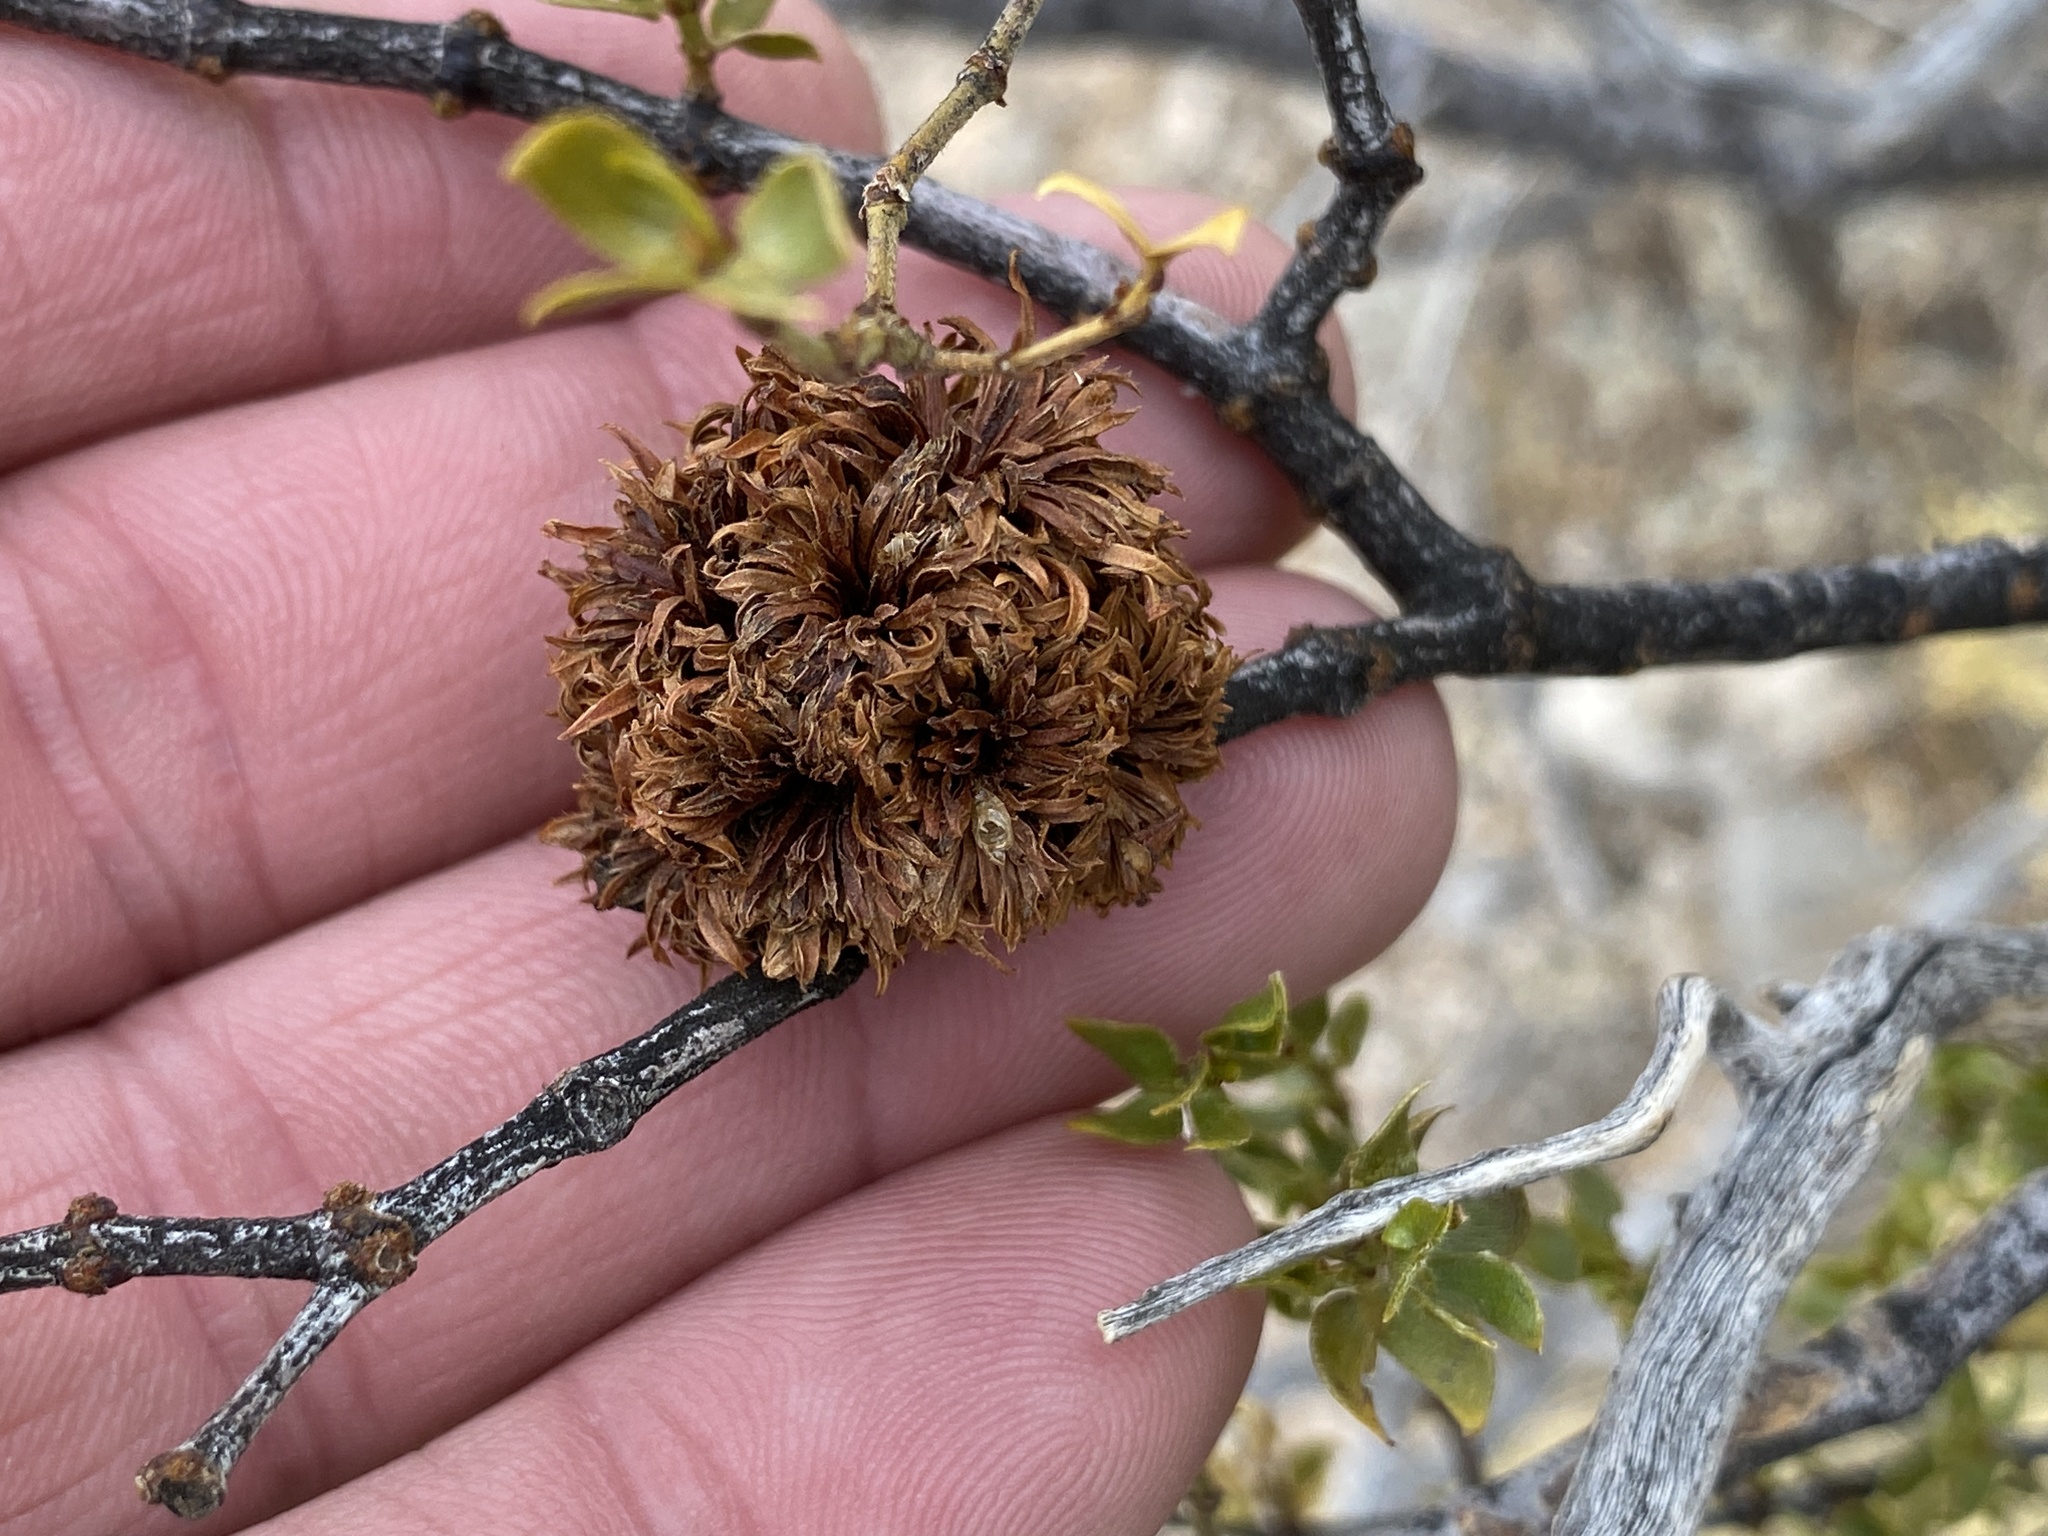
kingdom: Animalia
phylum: Arthropoda
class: Insecta
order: Diptera
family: Cecidomyiidae
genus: Asphondylia
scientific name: Asphondylia auripila
